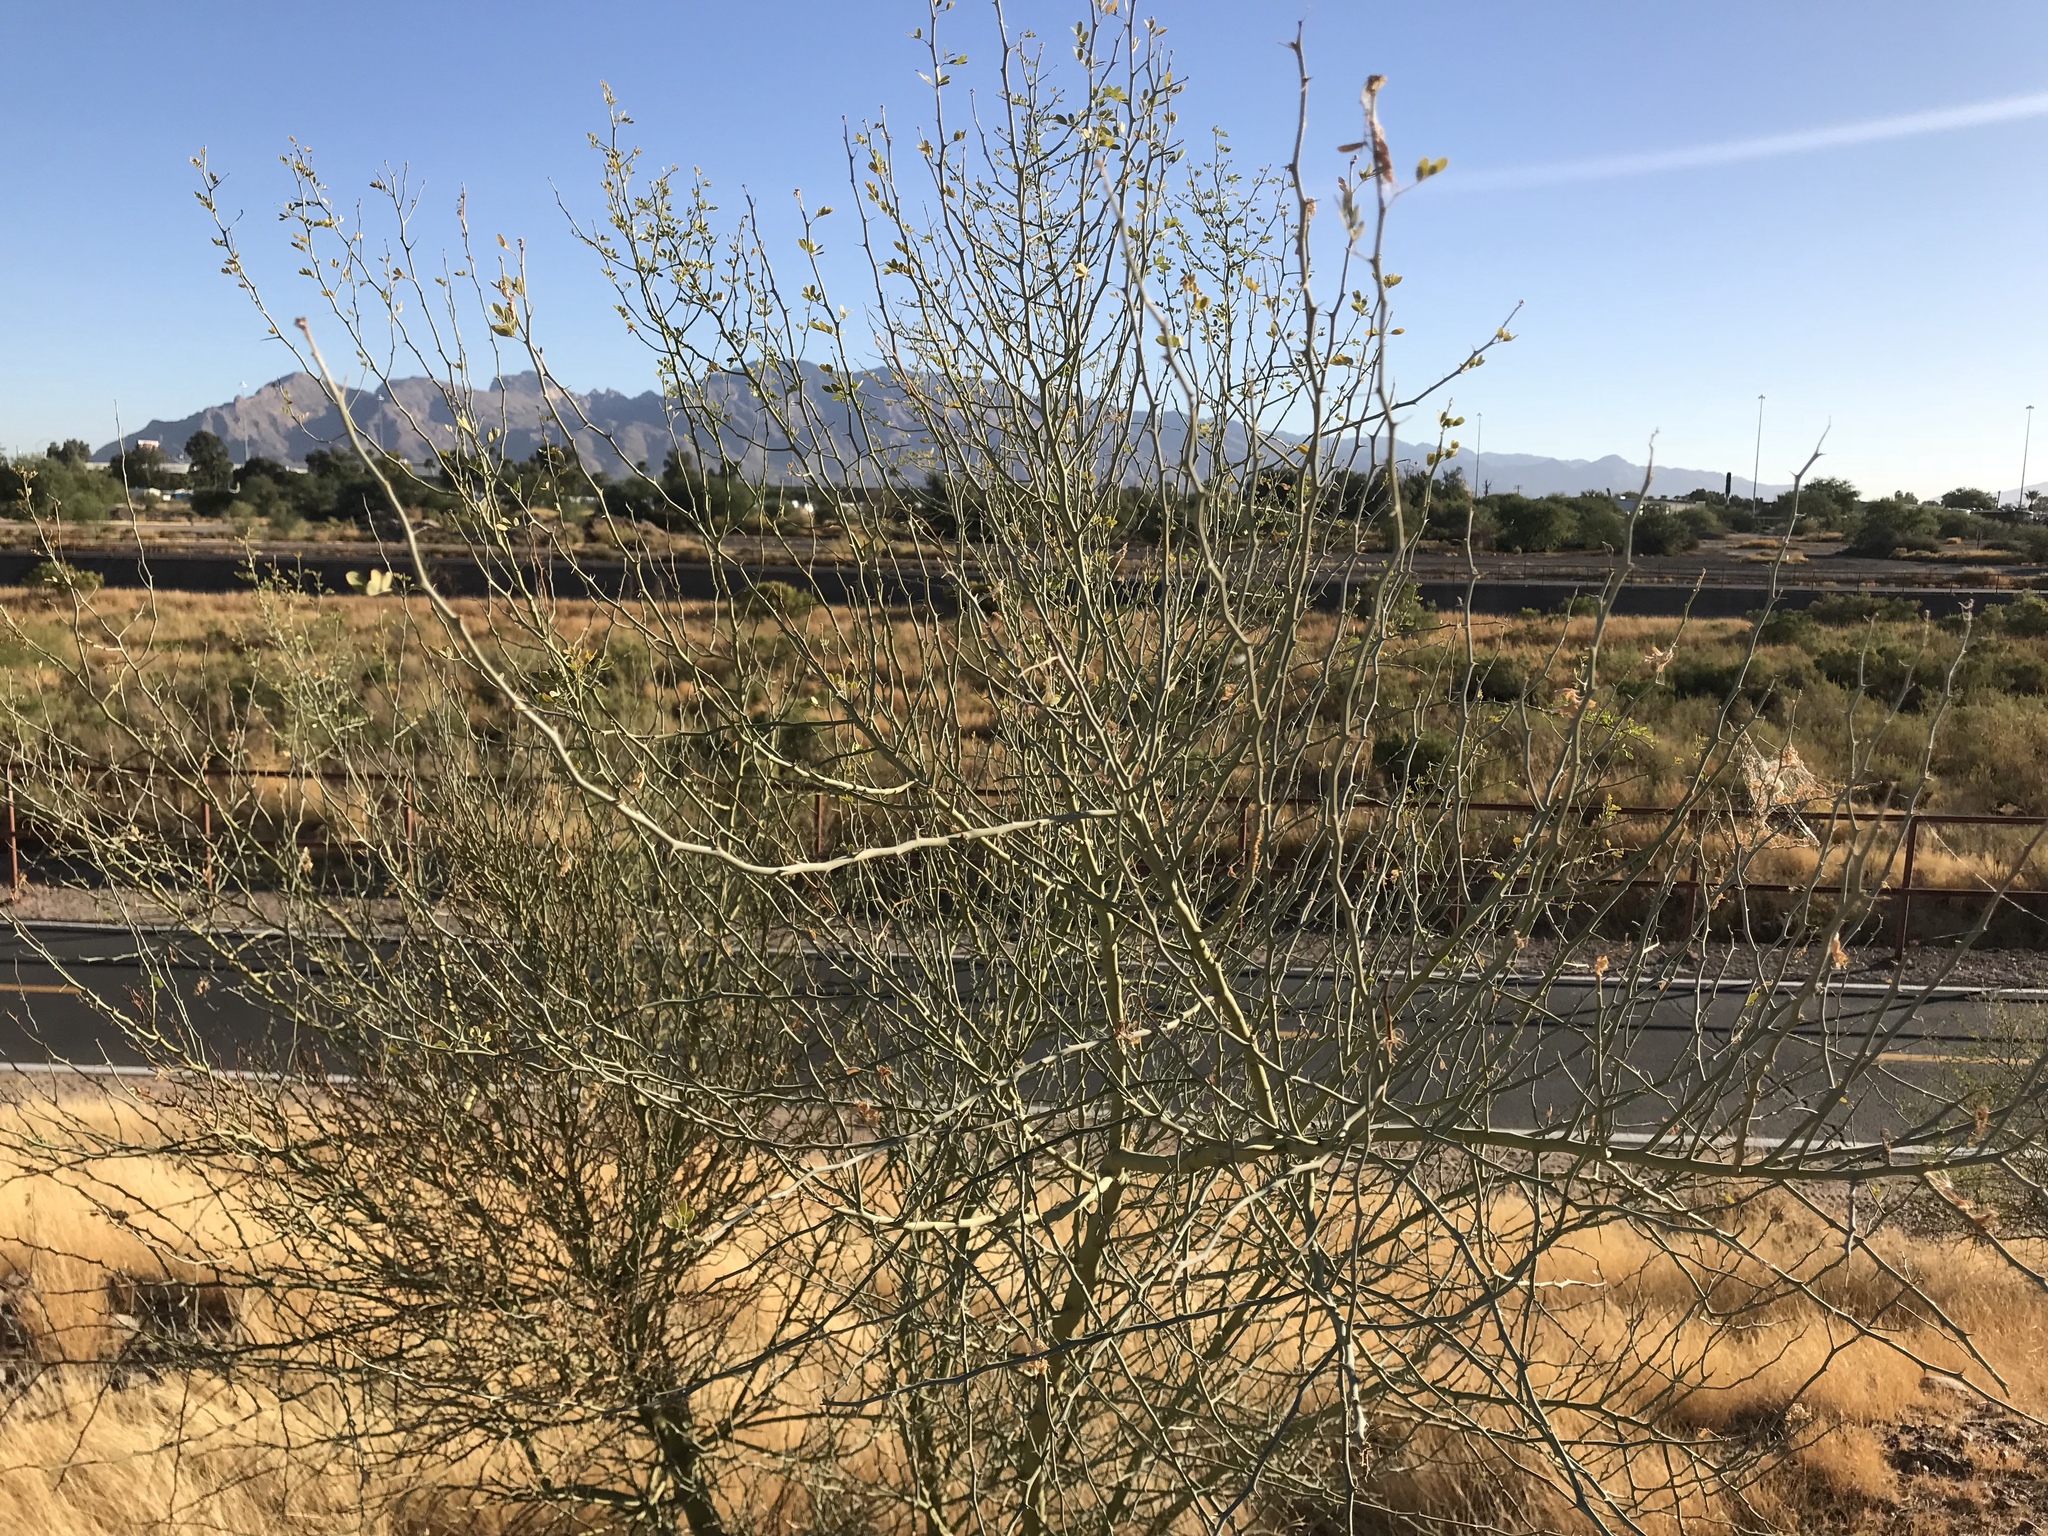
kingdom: Plantae
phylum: Tracheophyta
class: Magnoliopsida
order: Fabales
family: Fabaceae
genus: Parkinsonia
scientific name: Parkinsonia florida
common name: Blue paloverde
